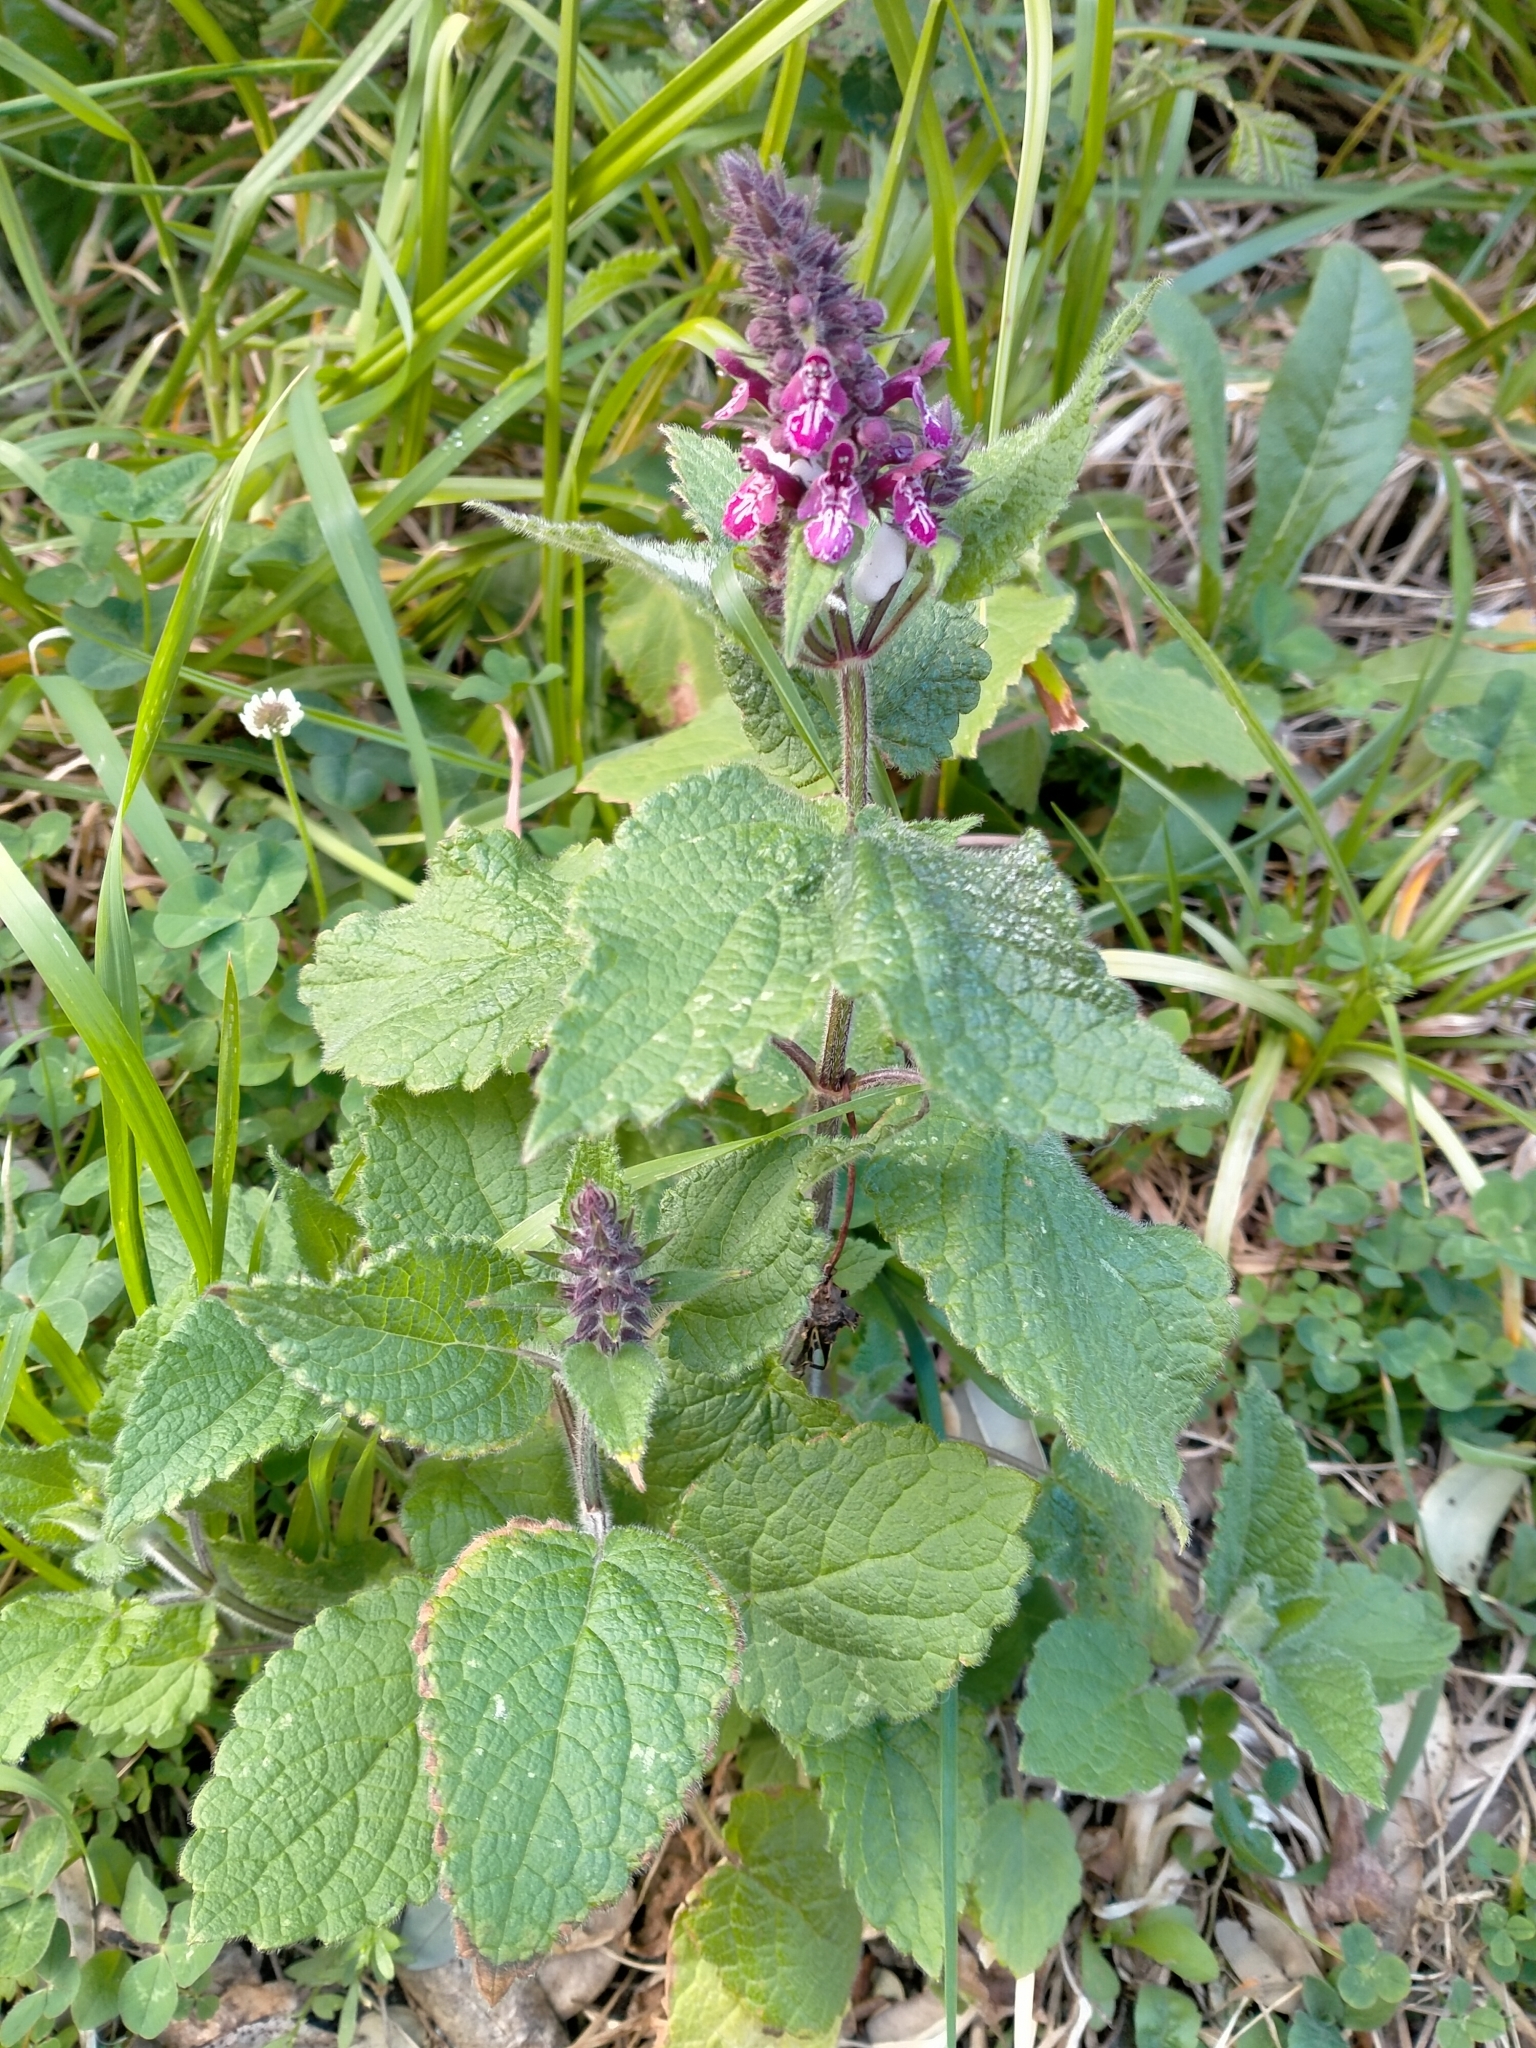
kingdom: Plantae
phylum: Tracheophyta
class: Magnoliopsida
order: Lamiales
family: Lamiaceae
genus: Stachys
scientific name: Stachys sylvatica
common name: Hedge woundwort
